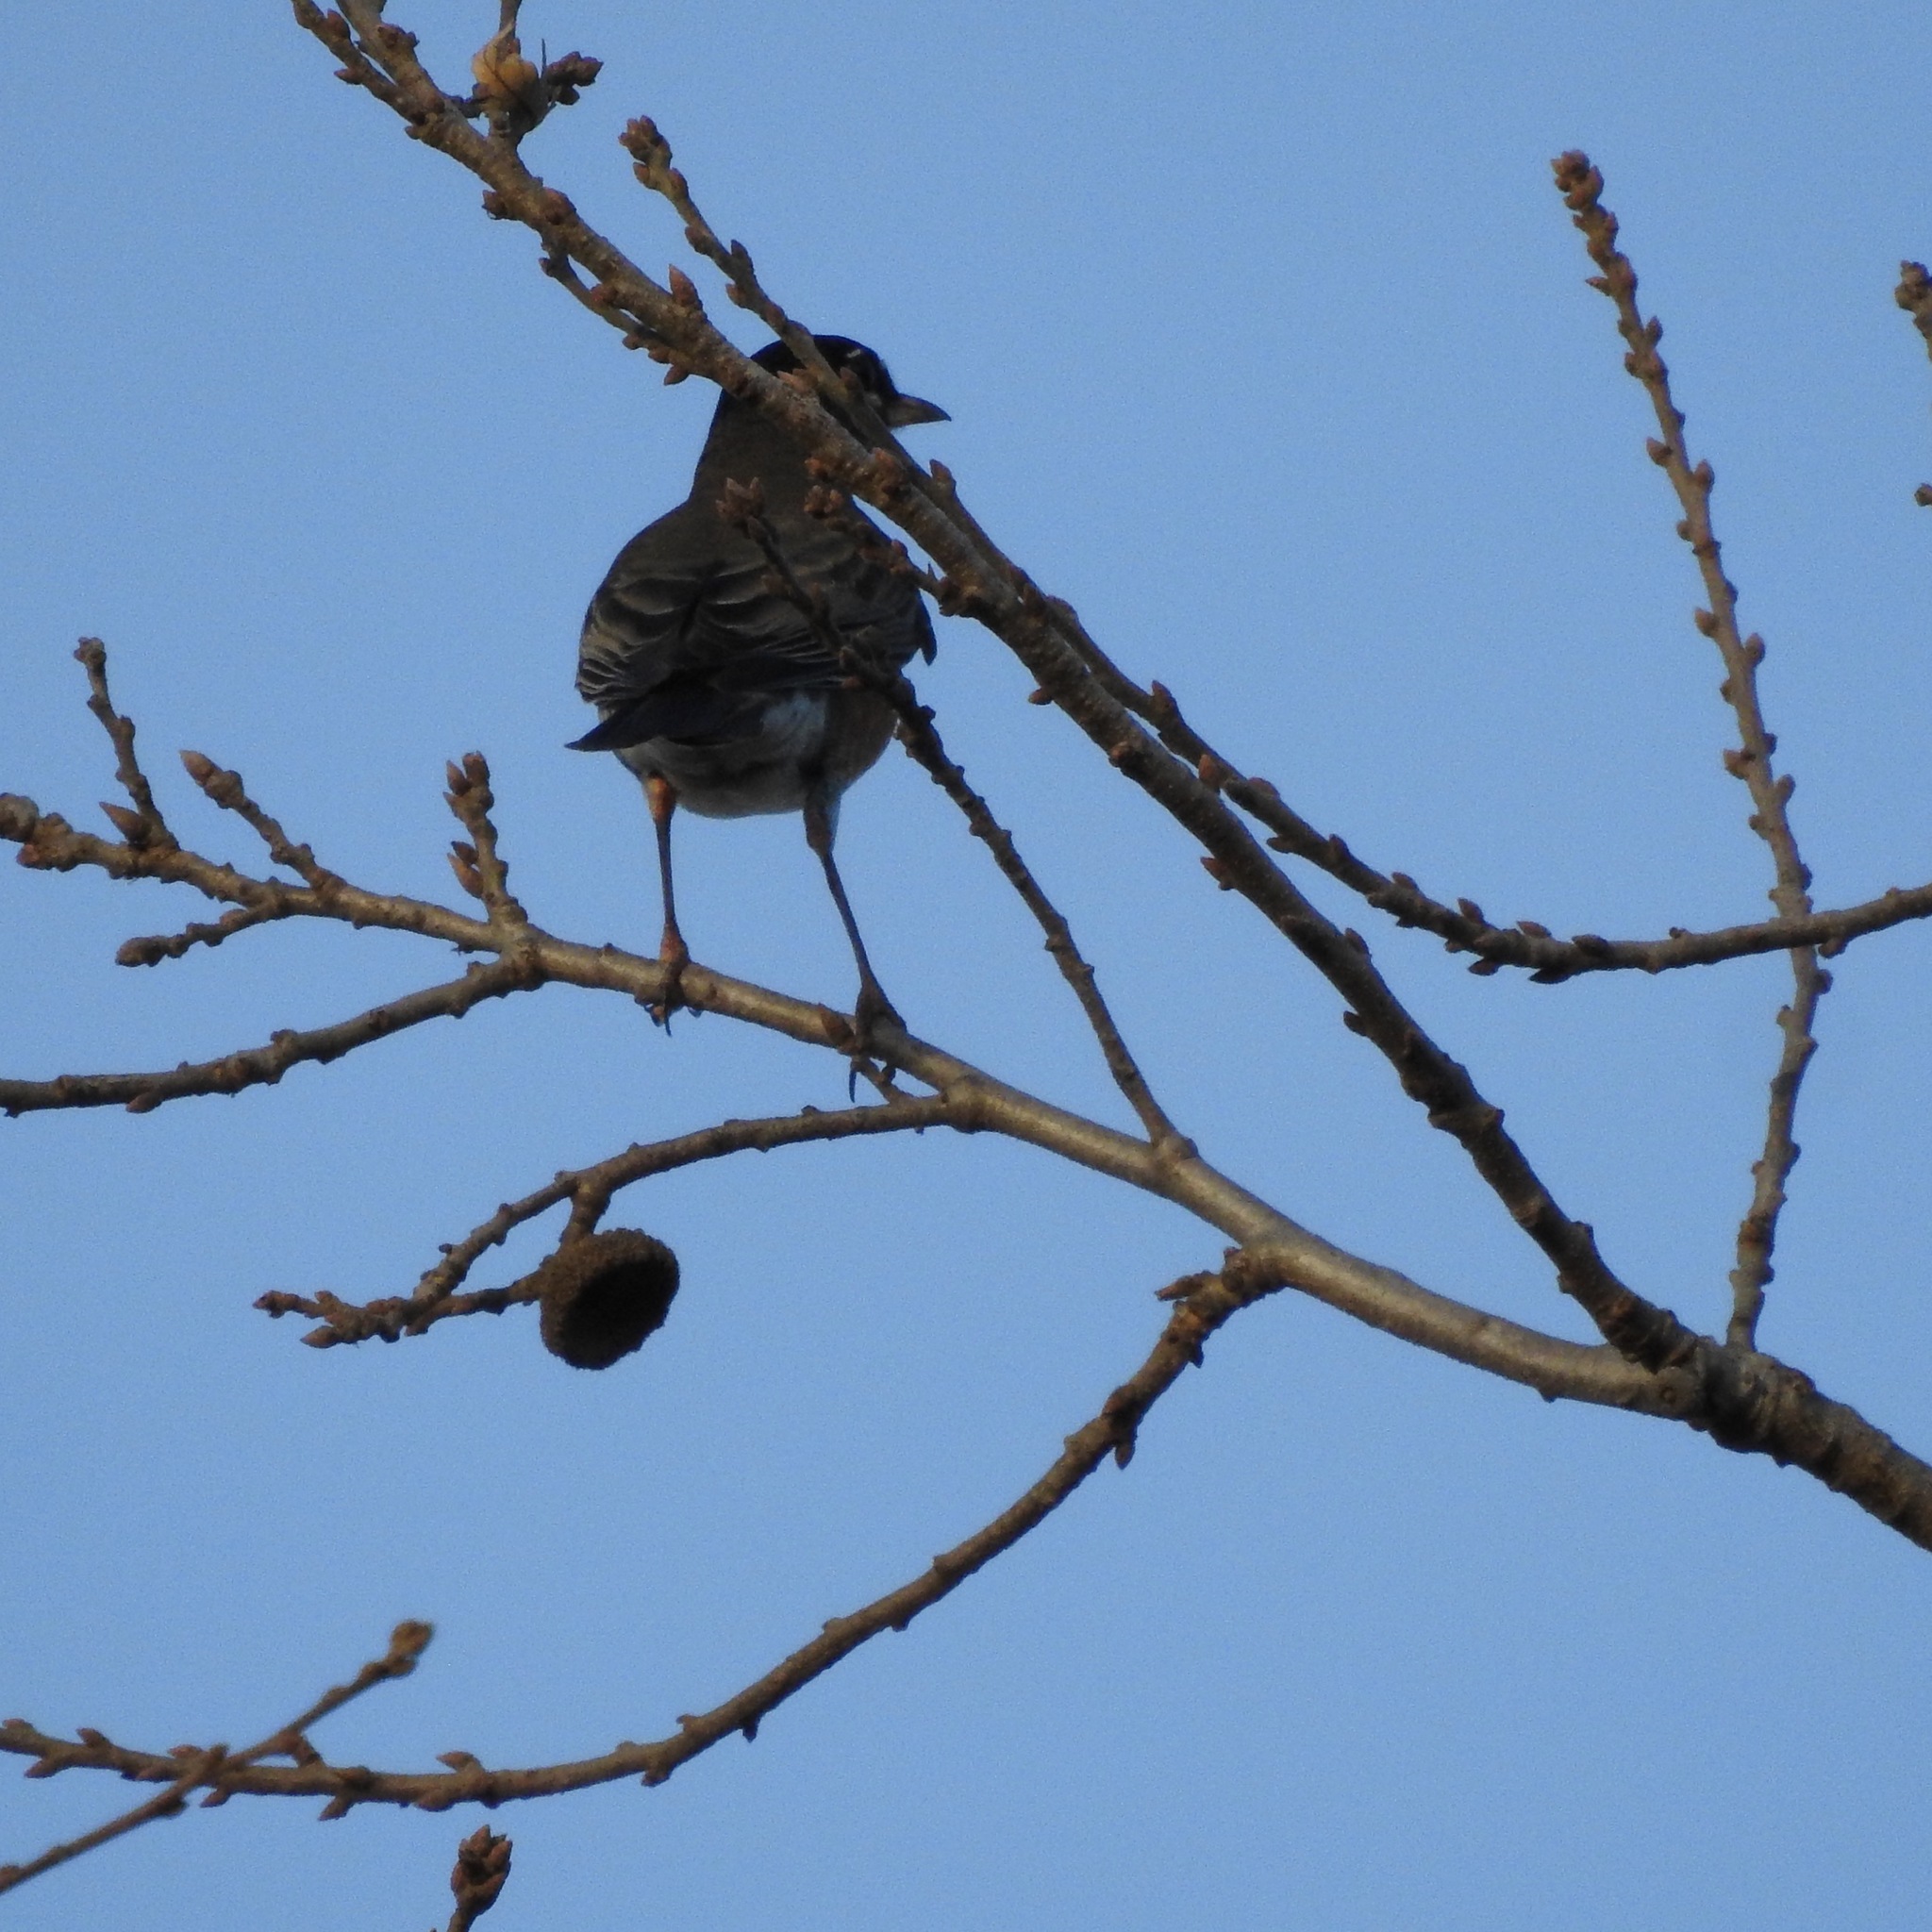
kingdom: Animalia
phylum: Chordata
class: Aves
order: Passeriformes
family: Turdidae
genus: Turdus
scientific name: Turdus migratorius
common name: American robin
